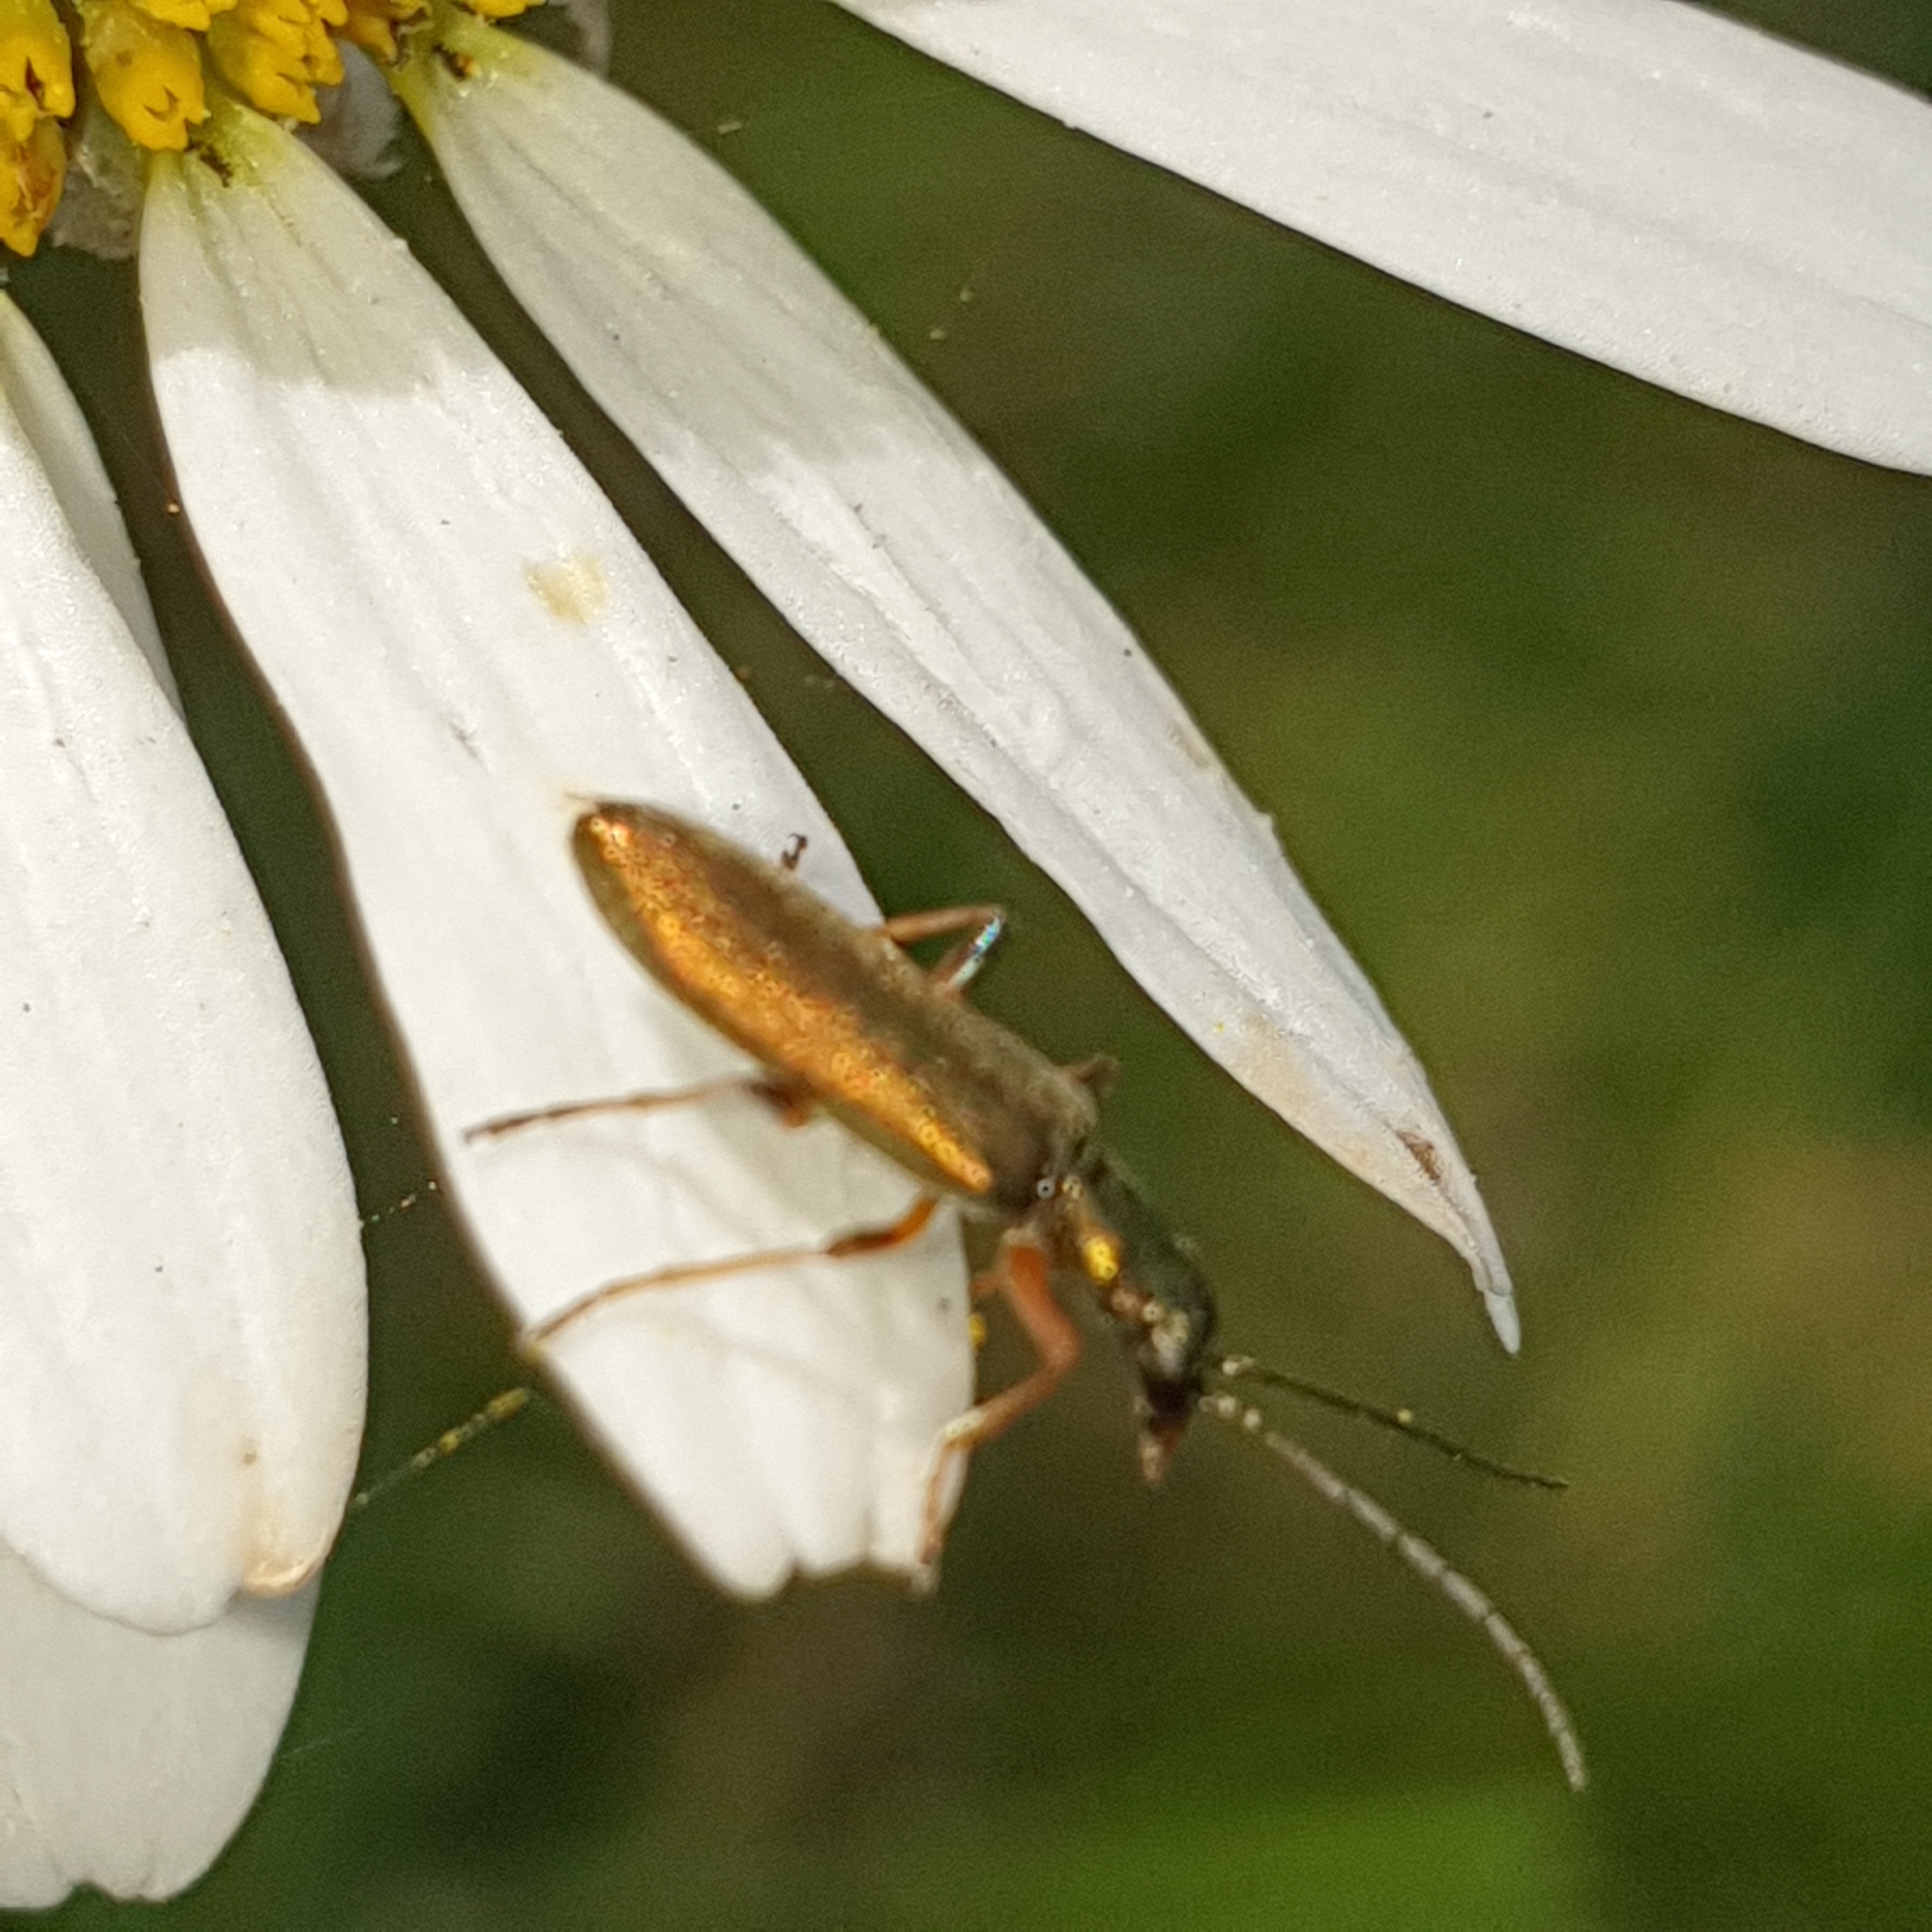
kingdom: Animalia
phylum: Arthropoda
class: Insecta
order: Coleoptera
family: Oedemeridae
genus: Chrysanthia
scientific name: Chrysanthia geniculata
